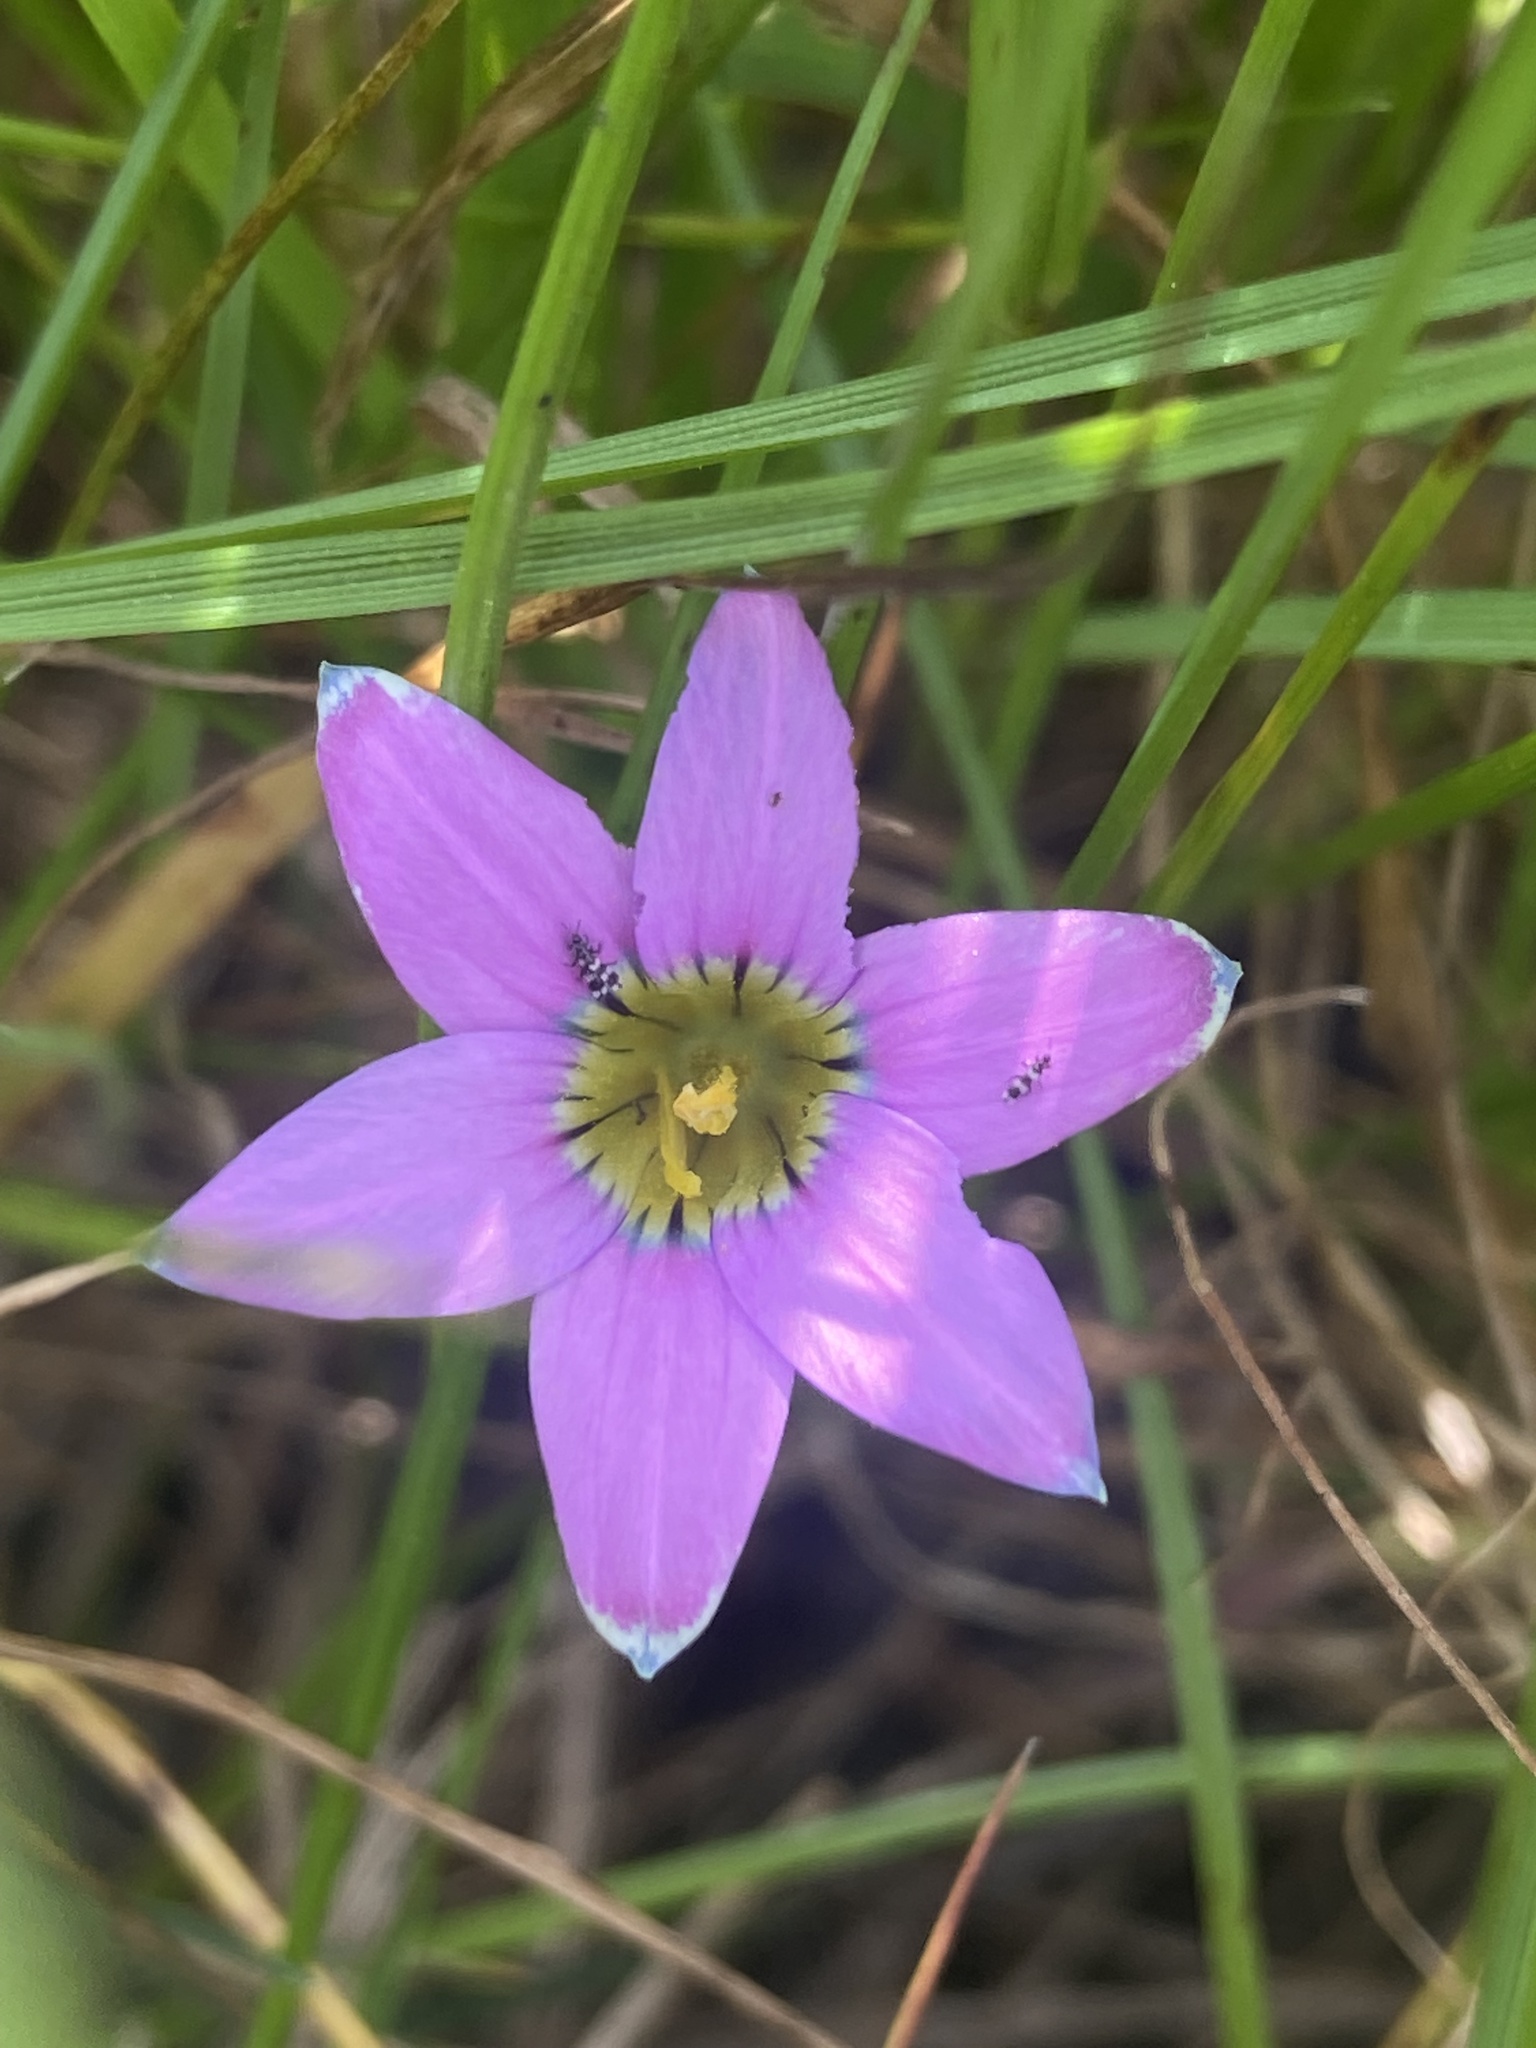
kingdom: Plantae
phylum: Tracheophyta
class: Liliopsida
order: Asparagales
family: Iridaceae
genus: Romulea
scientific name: Romulea rosea
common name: Oniongrass
